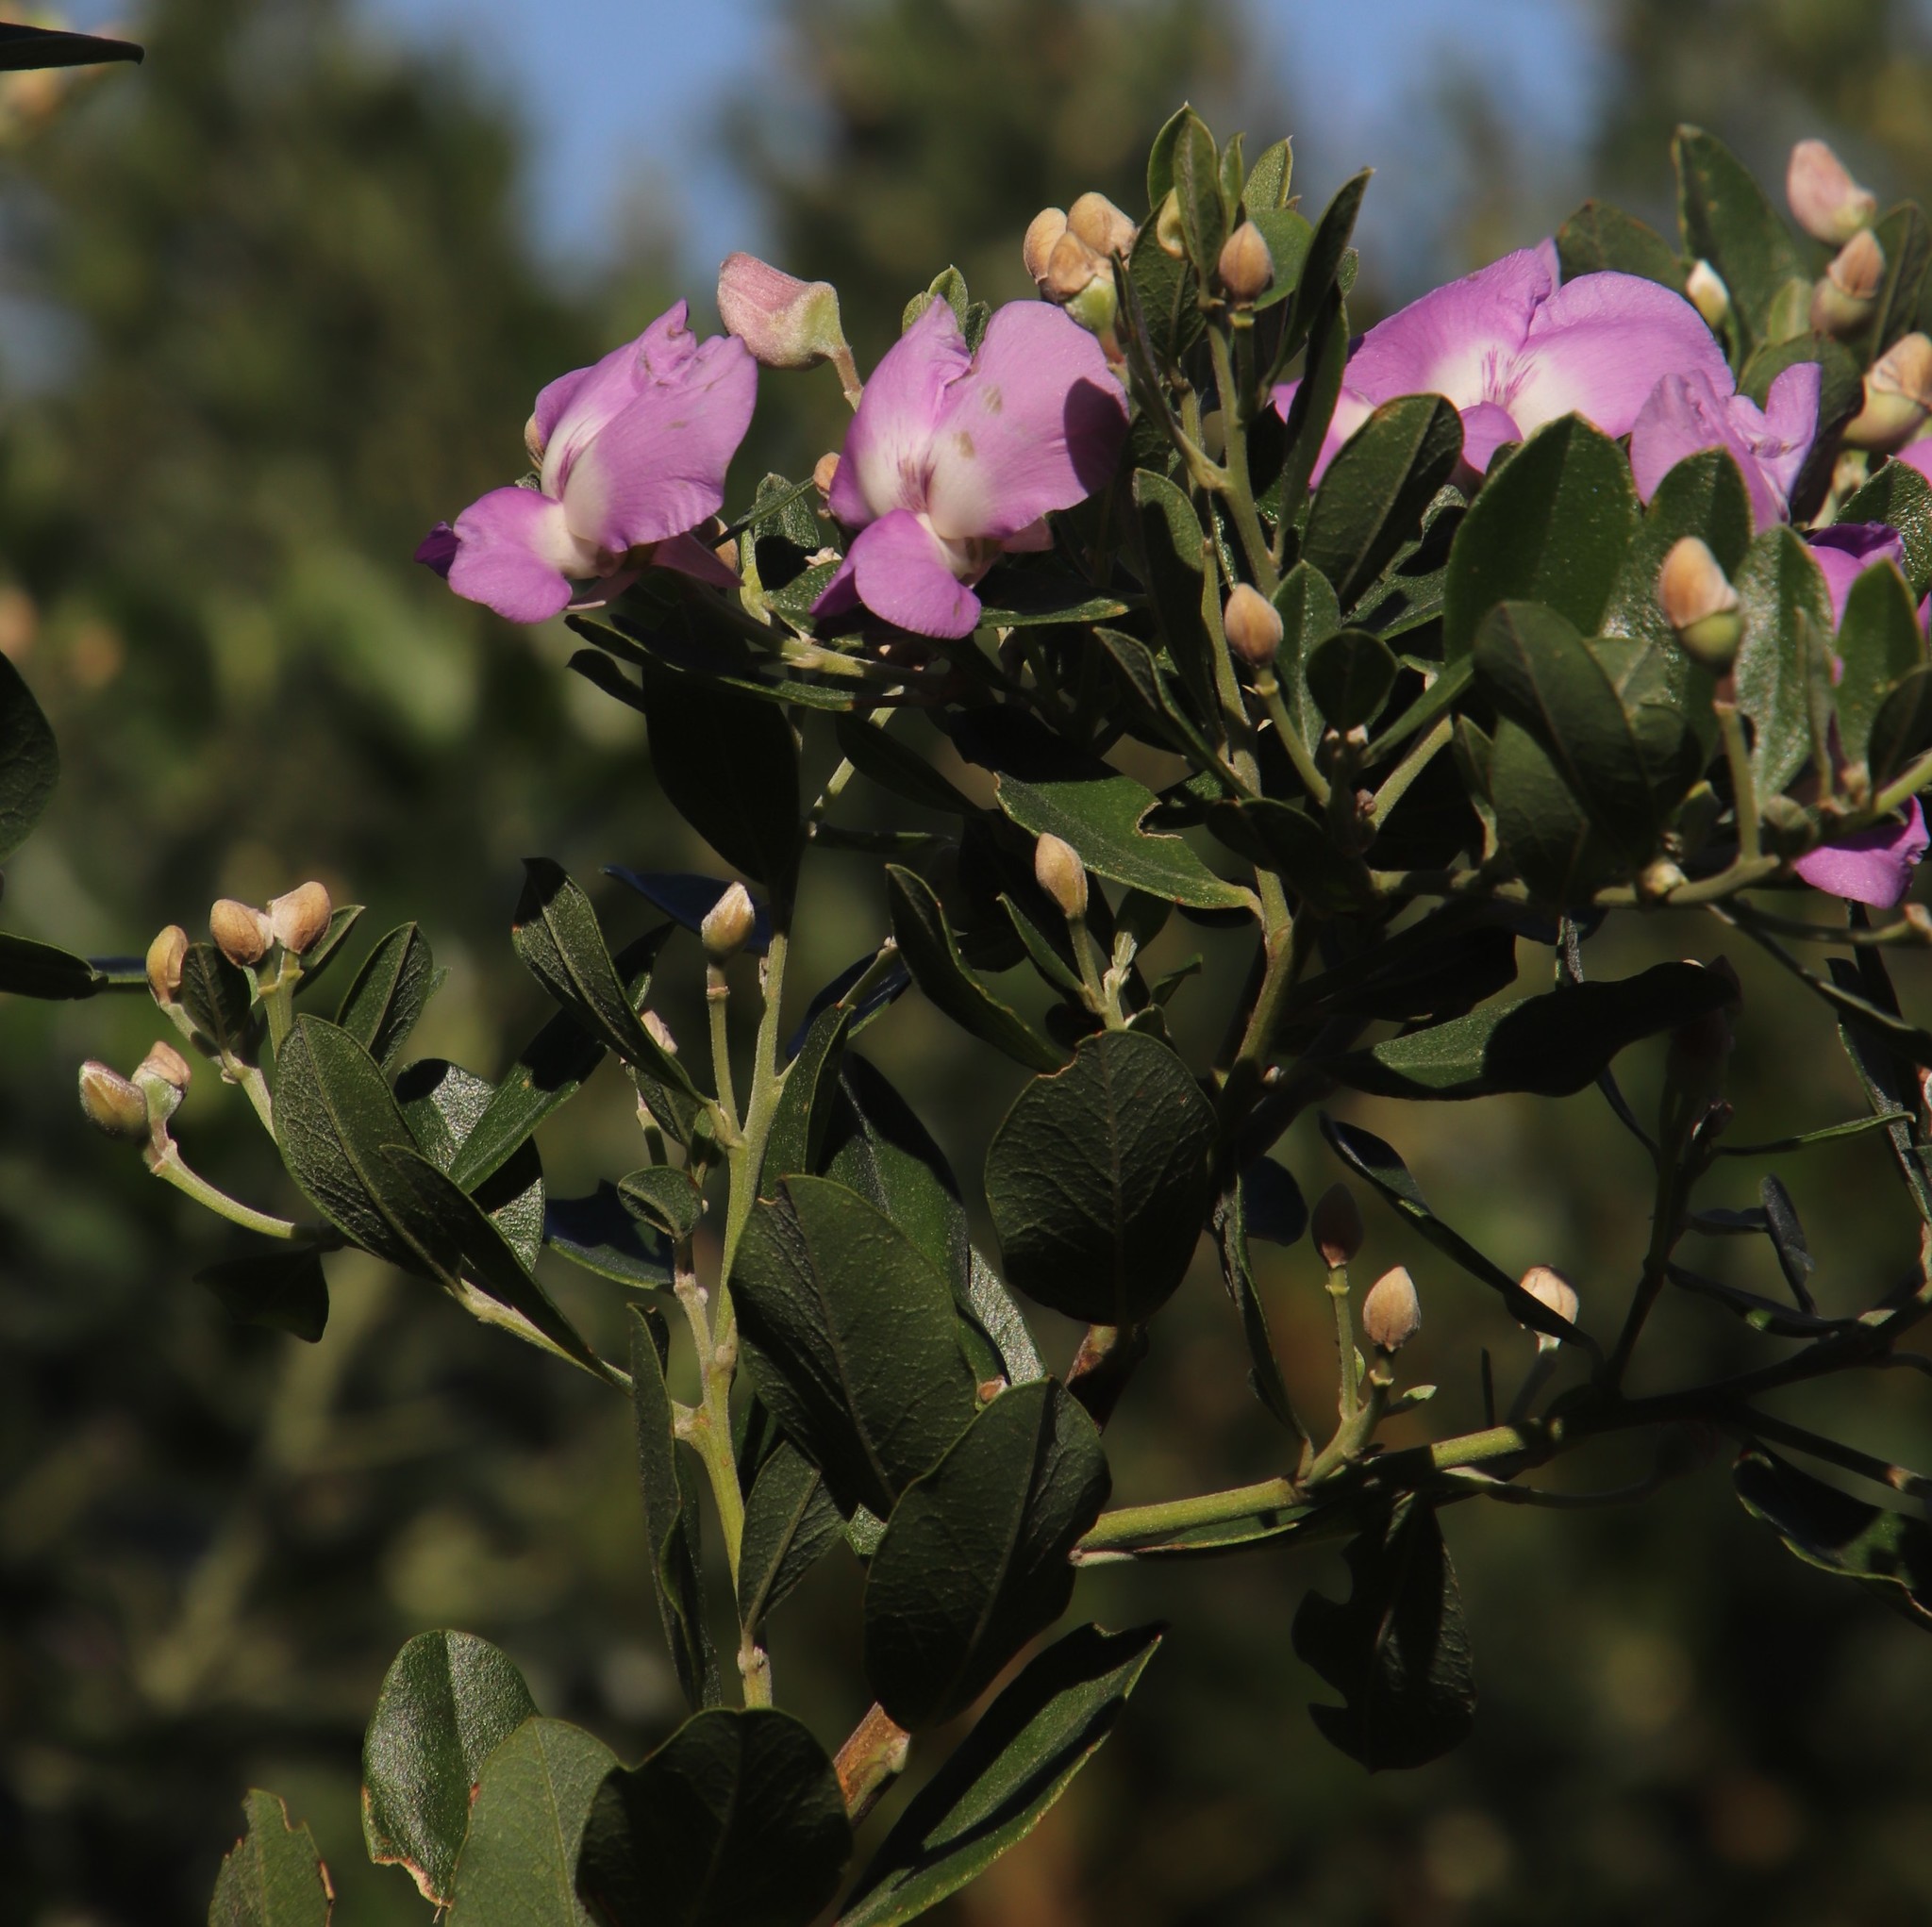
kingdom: Plantae
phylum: Tracheophyta
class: Magnoliopsida
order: Fabales
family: Fabaceae
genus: Podalyria
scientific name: Podalyria calyptrata
